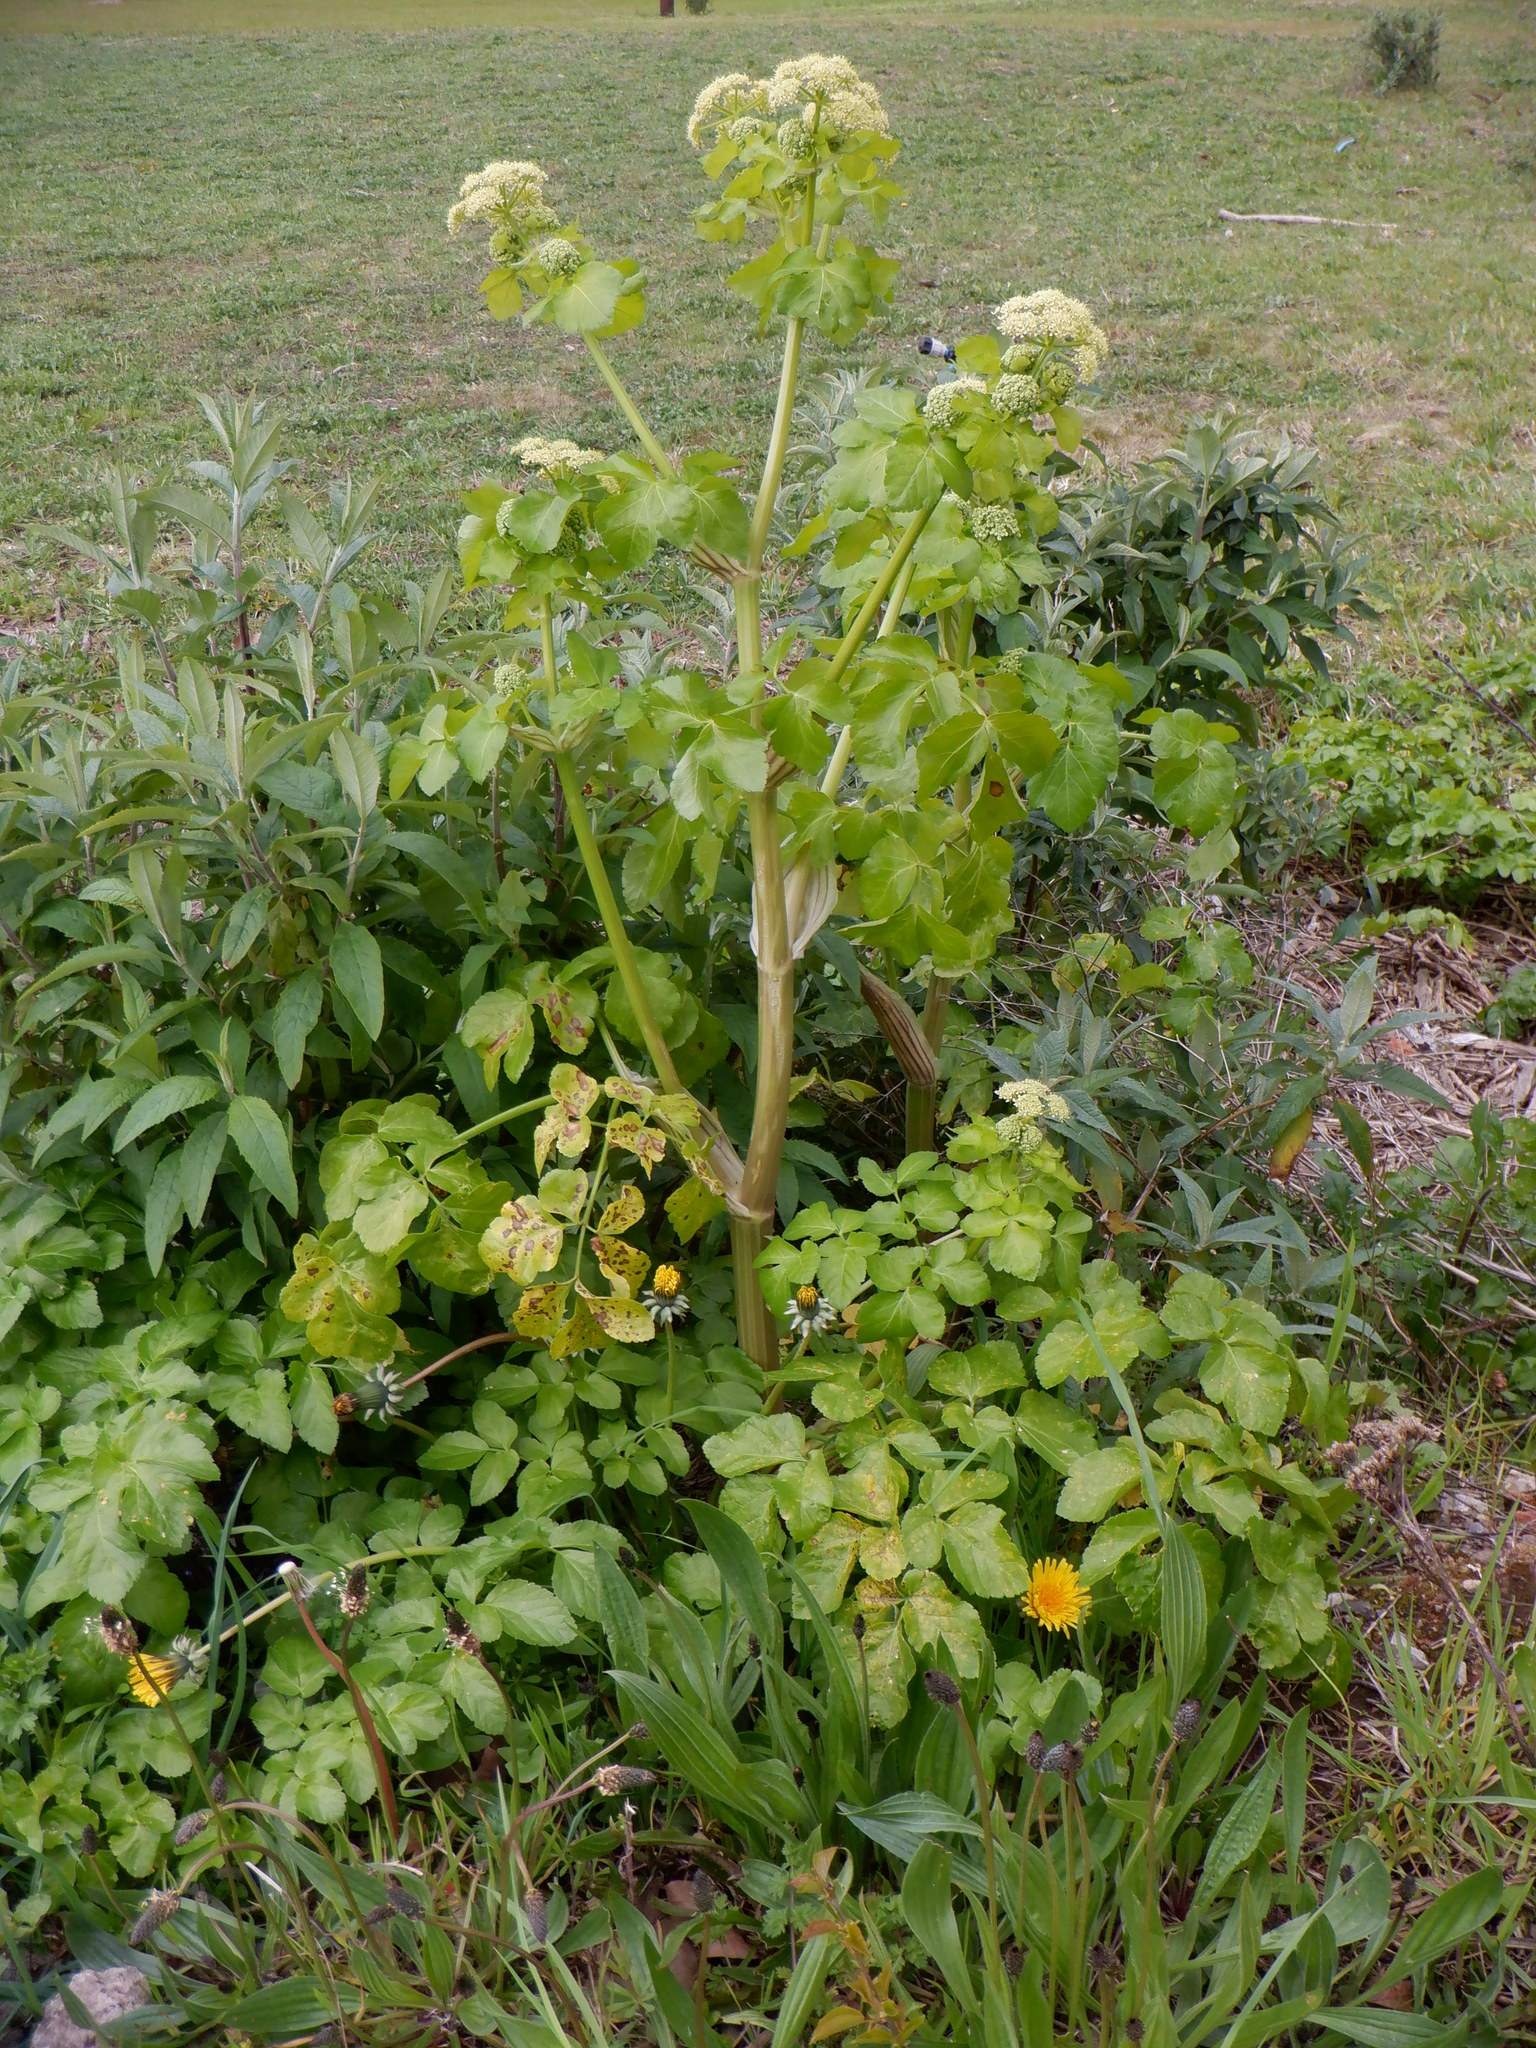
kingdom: Plantae
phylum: Tracheophyta
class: Magnoliopsida
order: Apiales
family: Apiaceae
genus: Smyrnium
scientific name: Smyrnium olusatrum
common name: Alexanders
